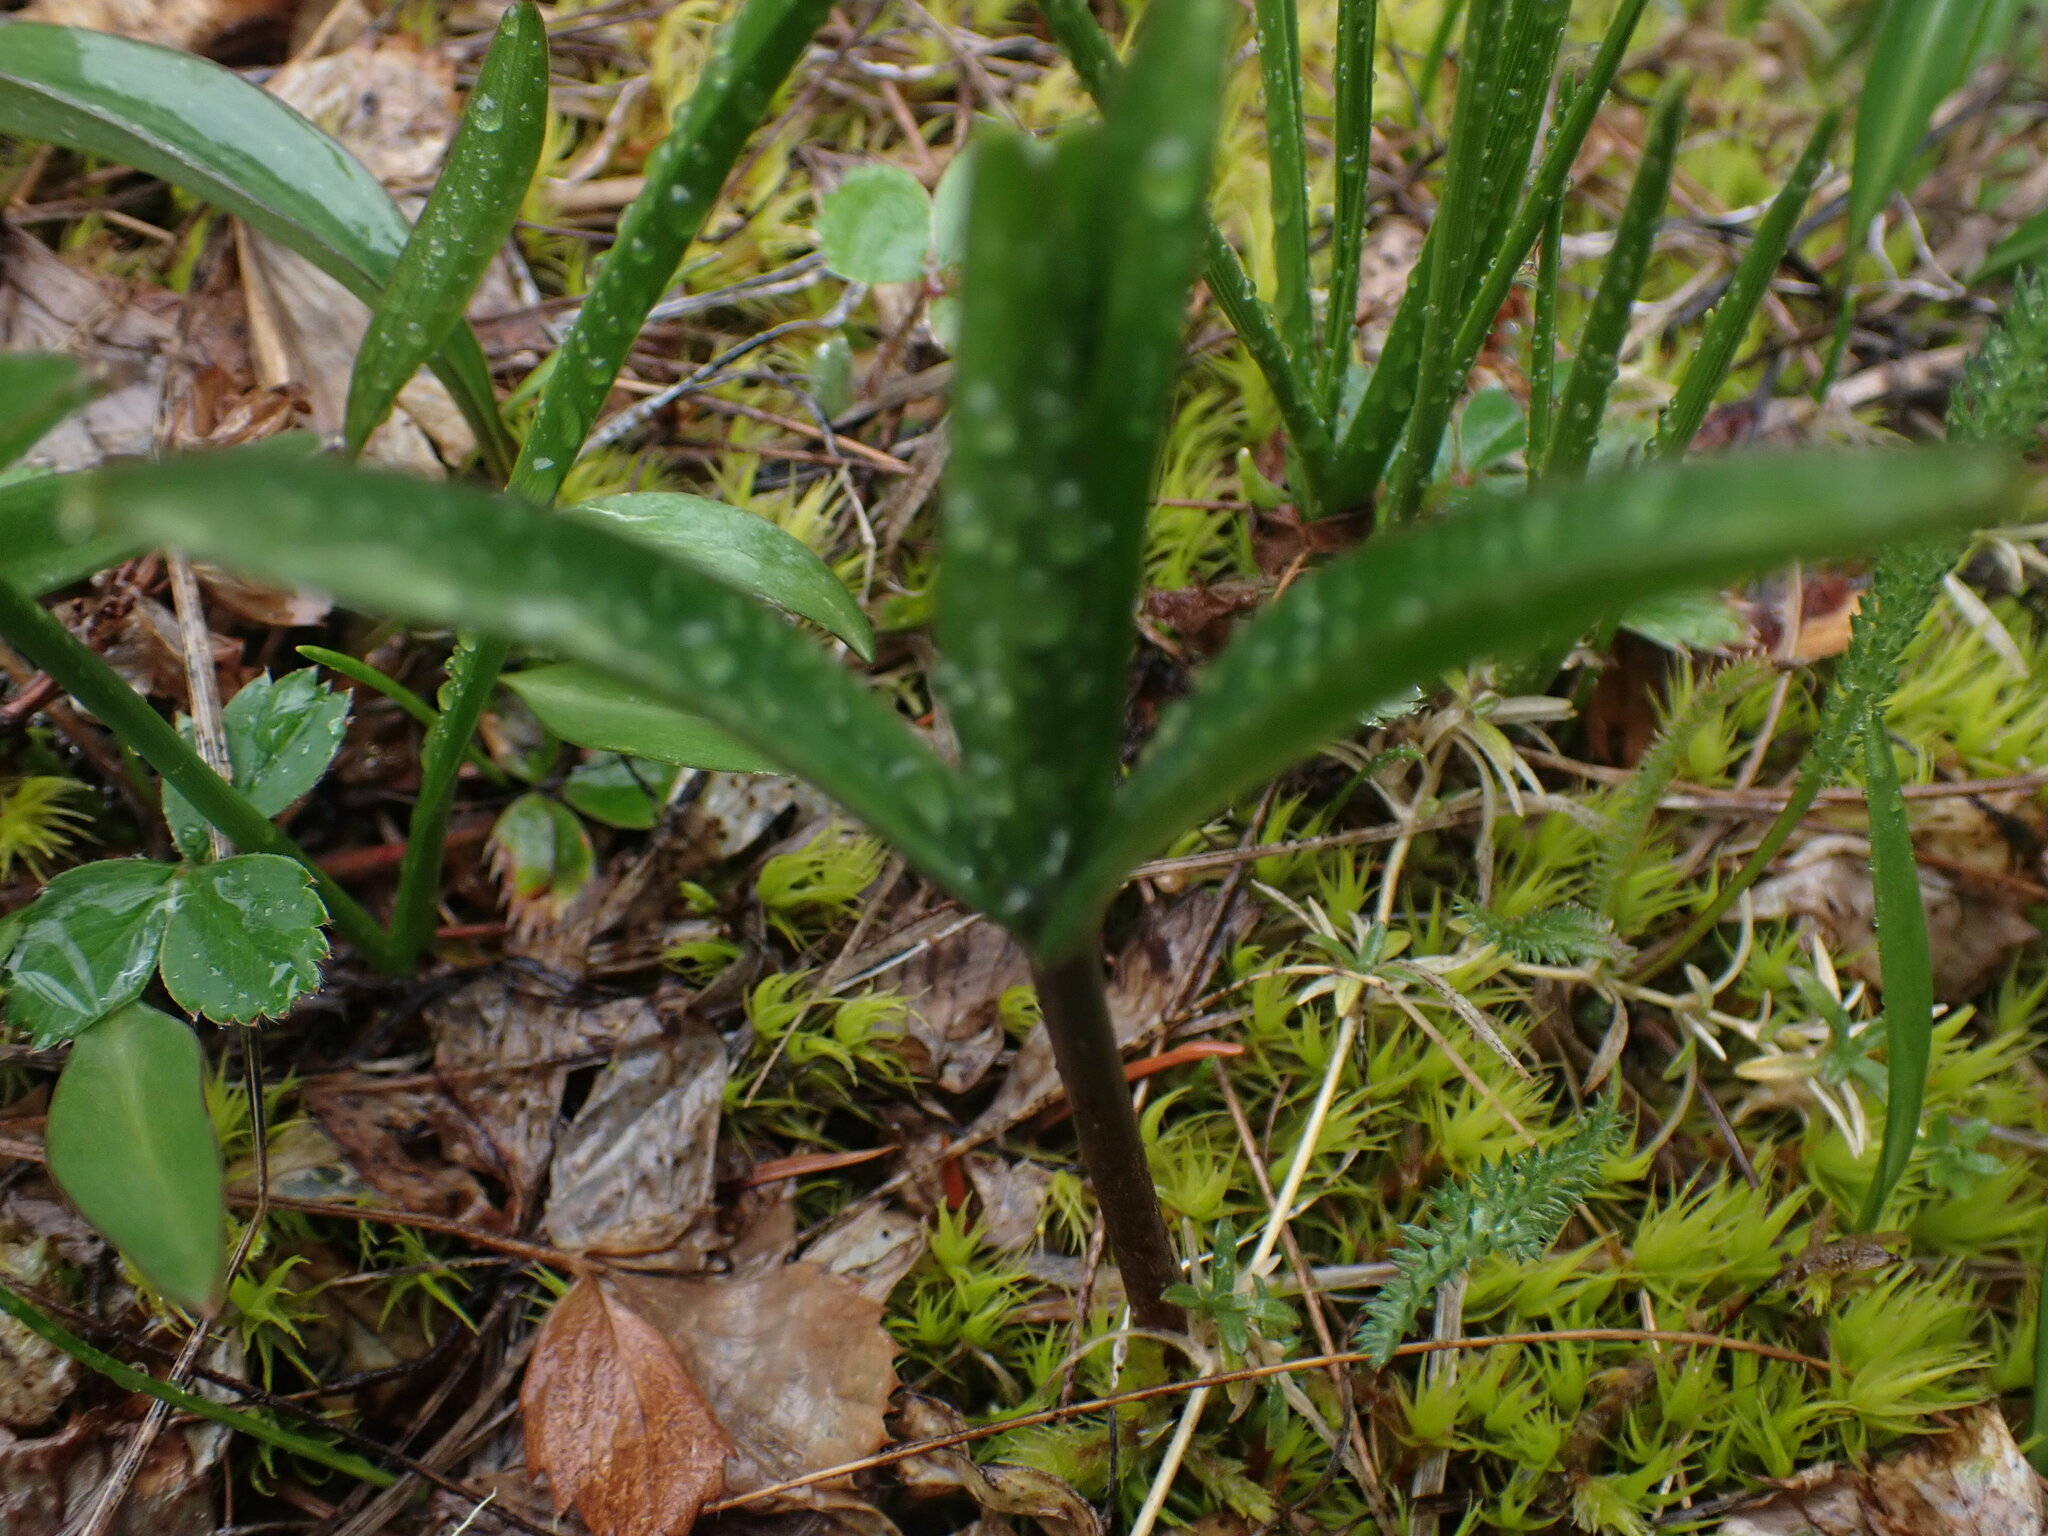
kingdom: Plantae
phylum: Tracheophyta
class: Liliopsida
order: Liliales
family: Liliaceae
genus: Fritillaria
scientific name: Fritillaria affinis
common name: Ojai fritillary
